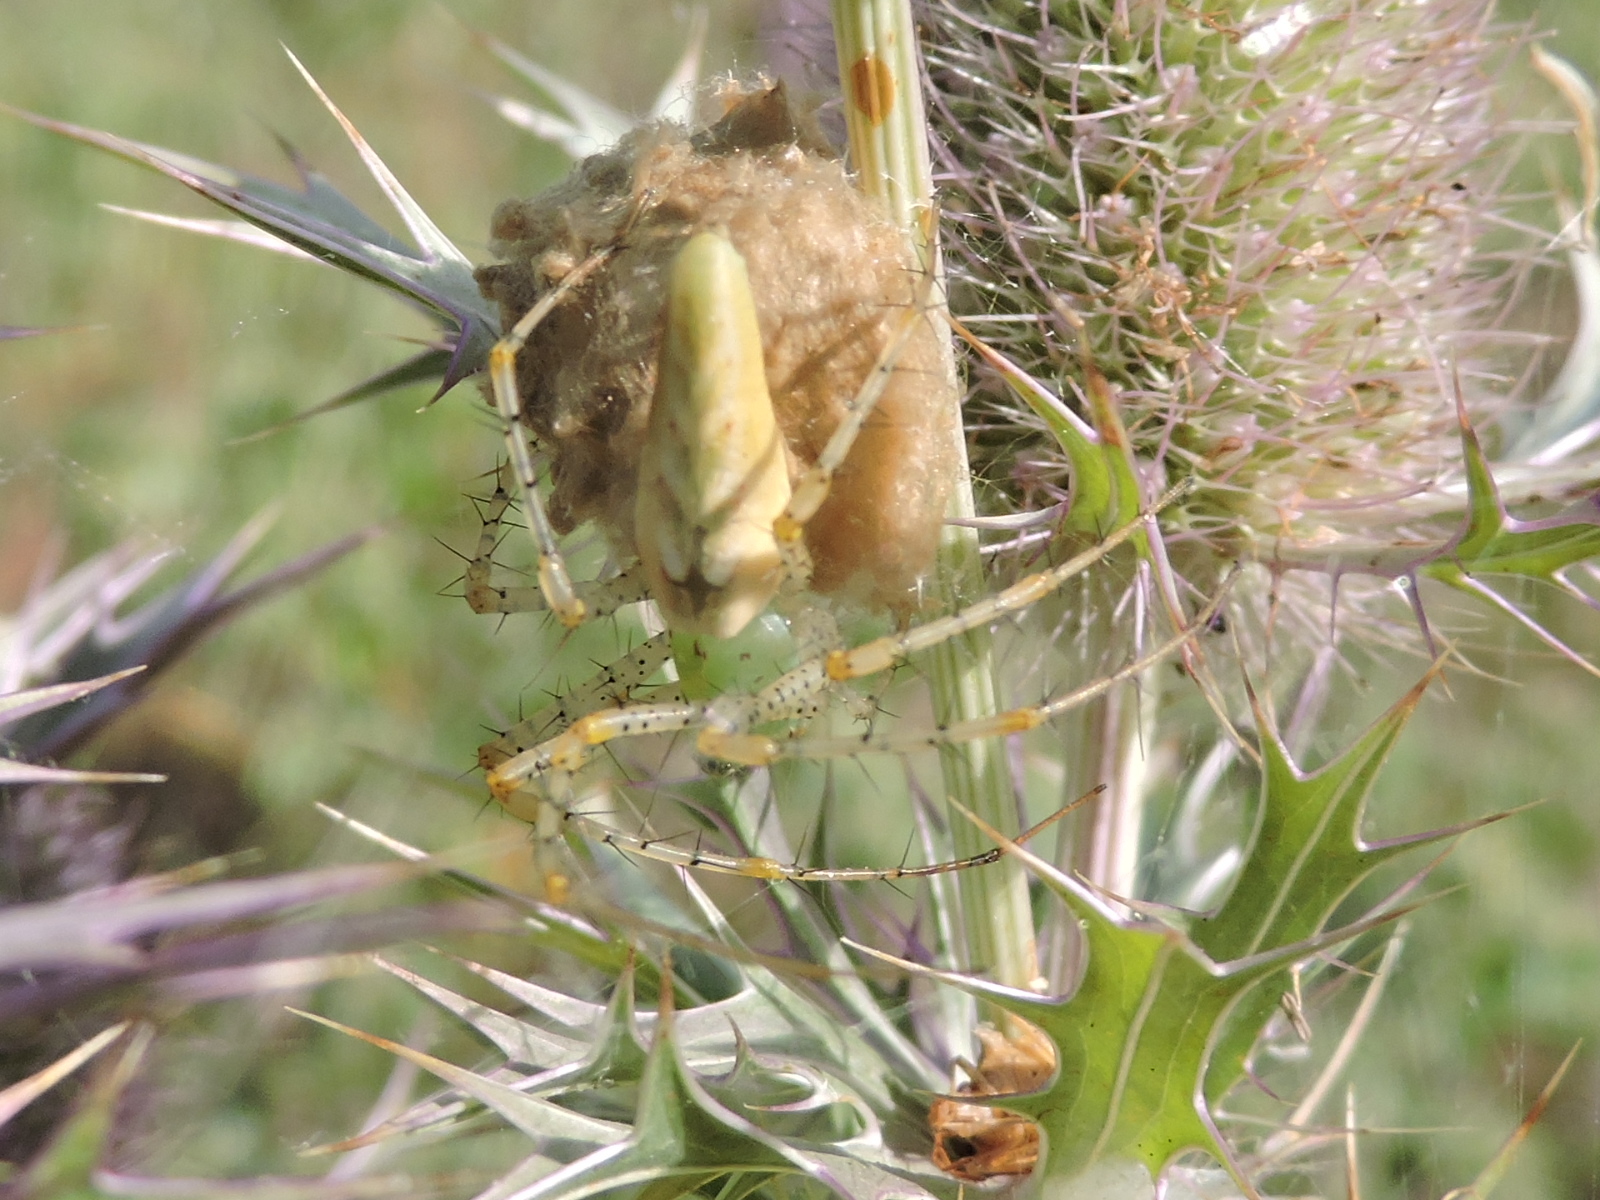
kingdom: Animalia
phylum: Arthropoda
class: Arachnida
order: Araneae
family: Oxyopidae
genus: Peucetia
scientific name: Peucetia viridans
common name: Lynx spiders
